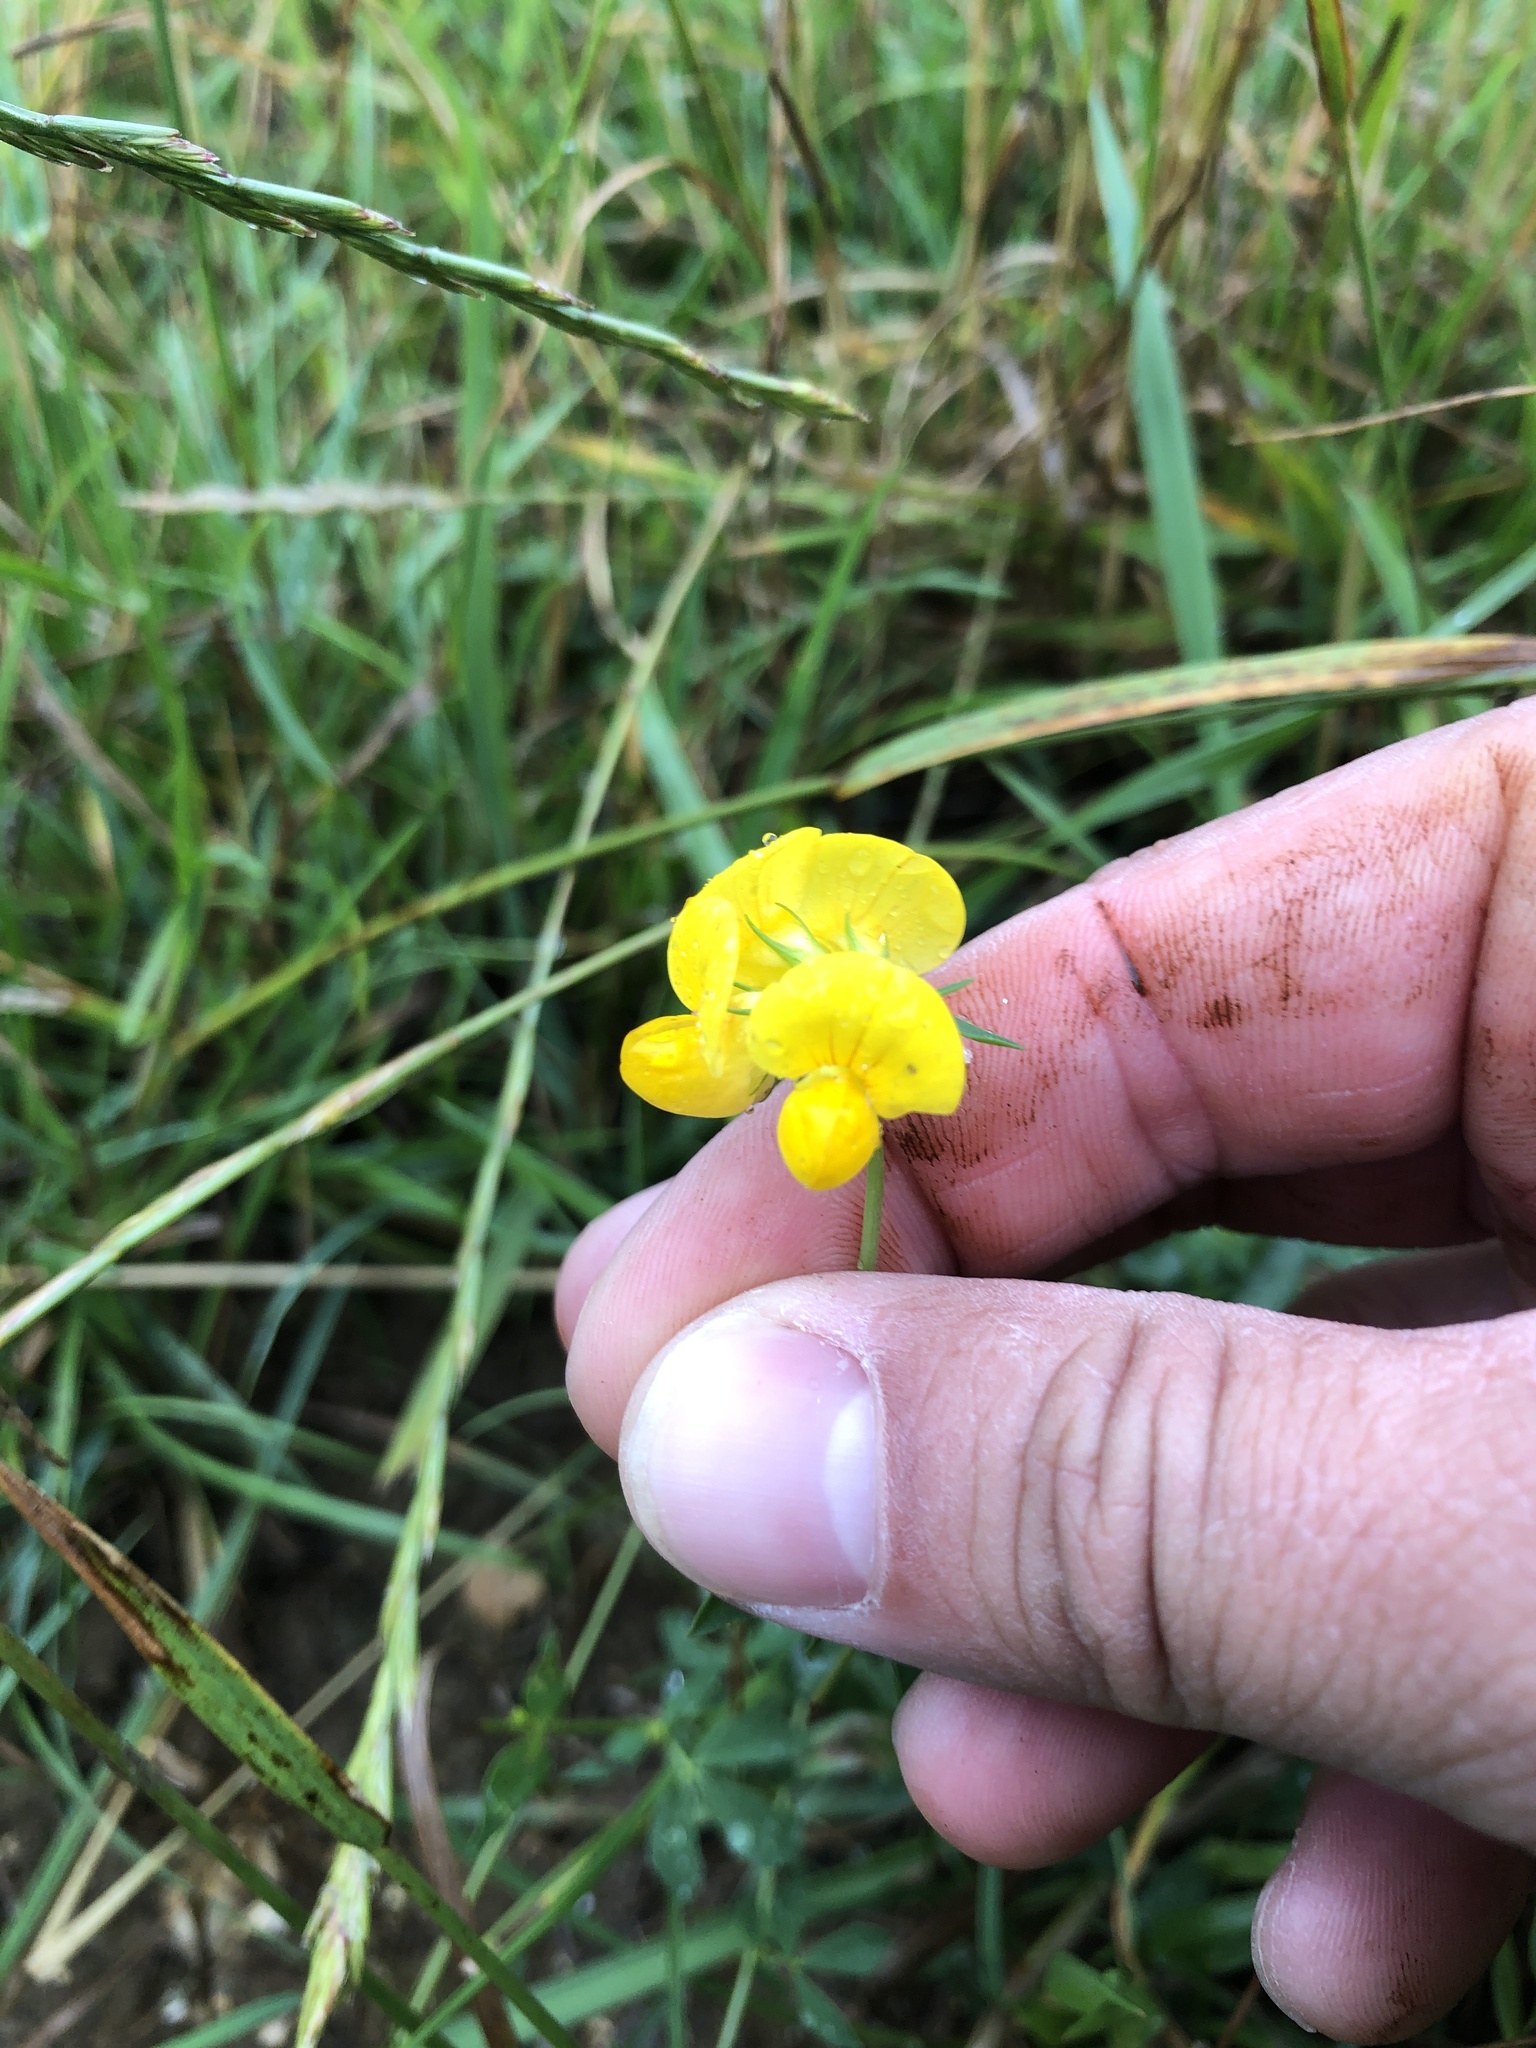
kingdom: Plantae
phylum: Tracheophyta
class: Magnoliopsida
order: Fabales
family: Fabaceae
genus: Lotus
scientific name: Lotus corniculatus
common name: Common bird's-foot-trefoil
